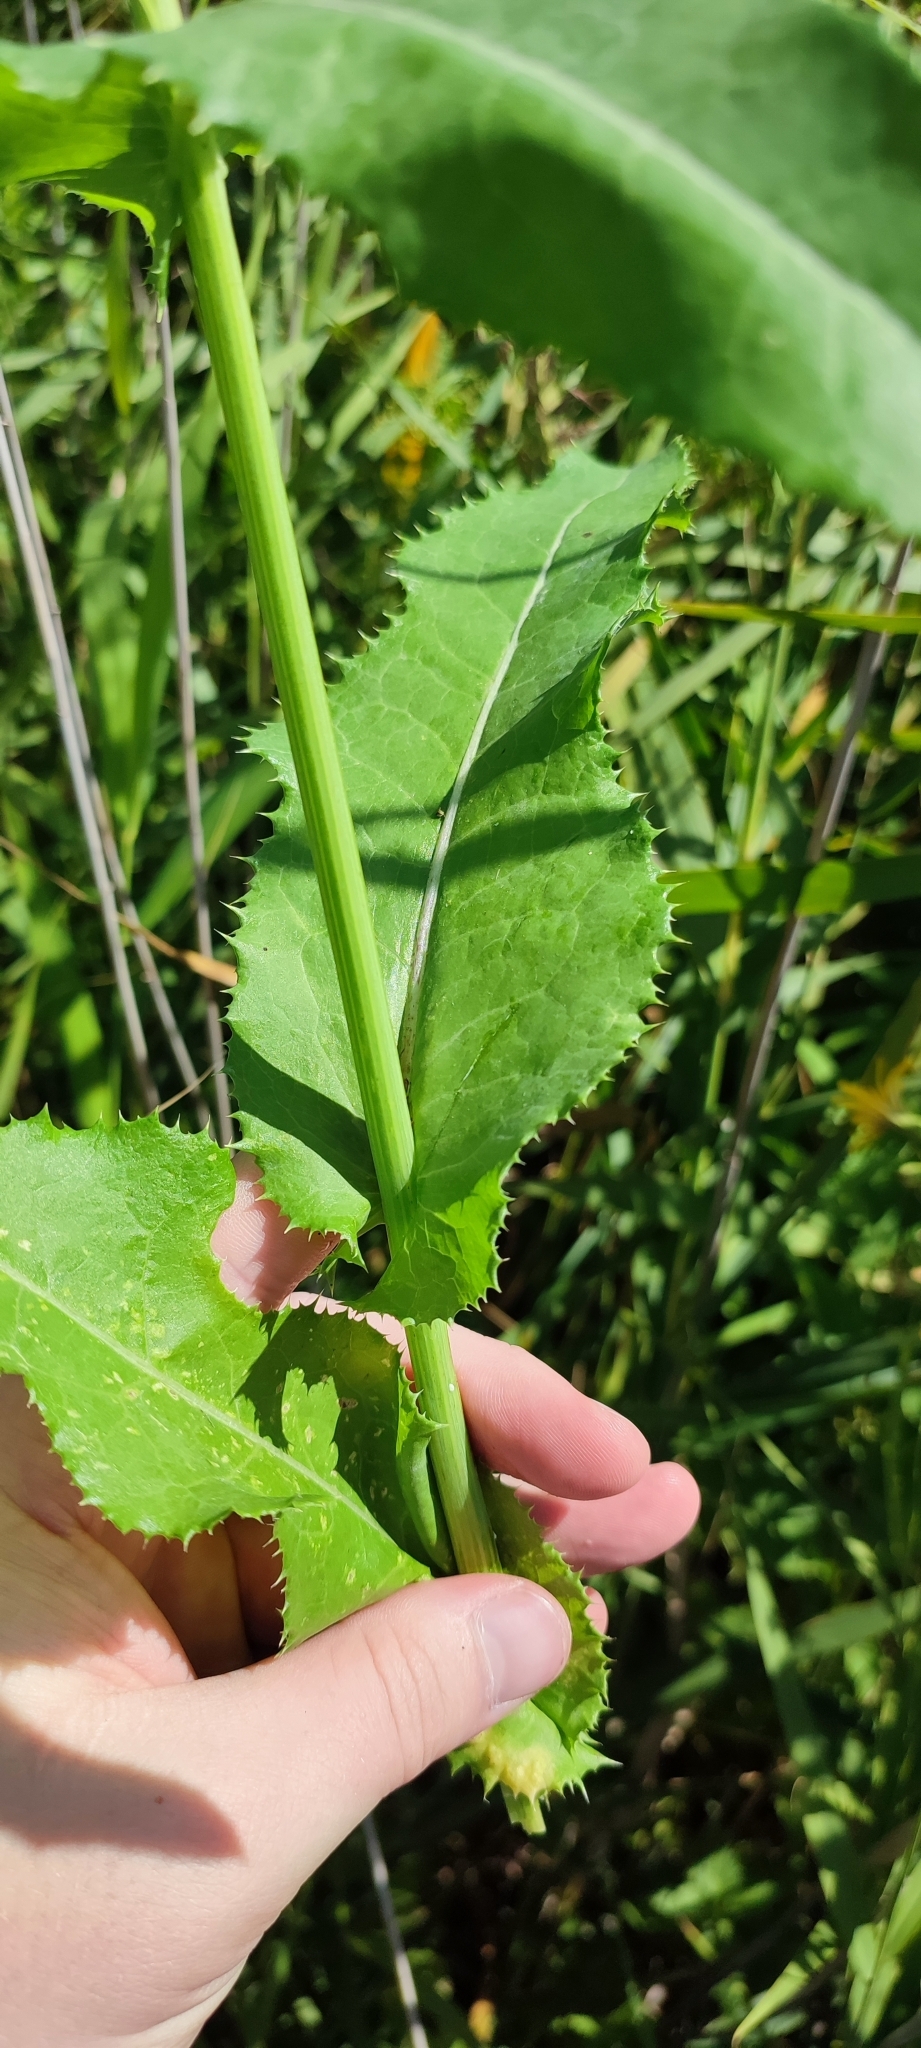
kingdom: Plantae
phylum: Tracheophyta
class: Magnoliopsida
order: Asterales
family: Asteraceae
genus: Sonchus
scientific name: Sonchus arvensis
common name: Perennial sow-thistle
